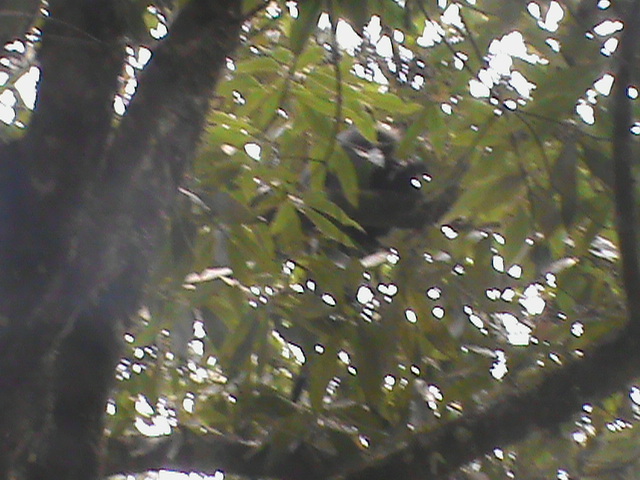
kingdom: Animalia
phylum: Chordata
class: Mammalia
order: Primates
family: Cercopithecidae
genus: Semnopithecus
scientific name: Semnopithecus johnii
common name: Nilgiri langur
